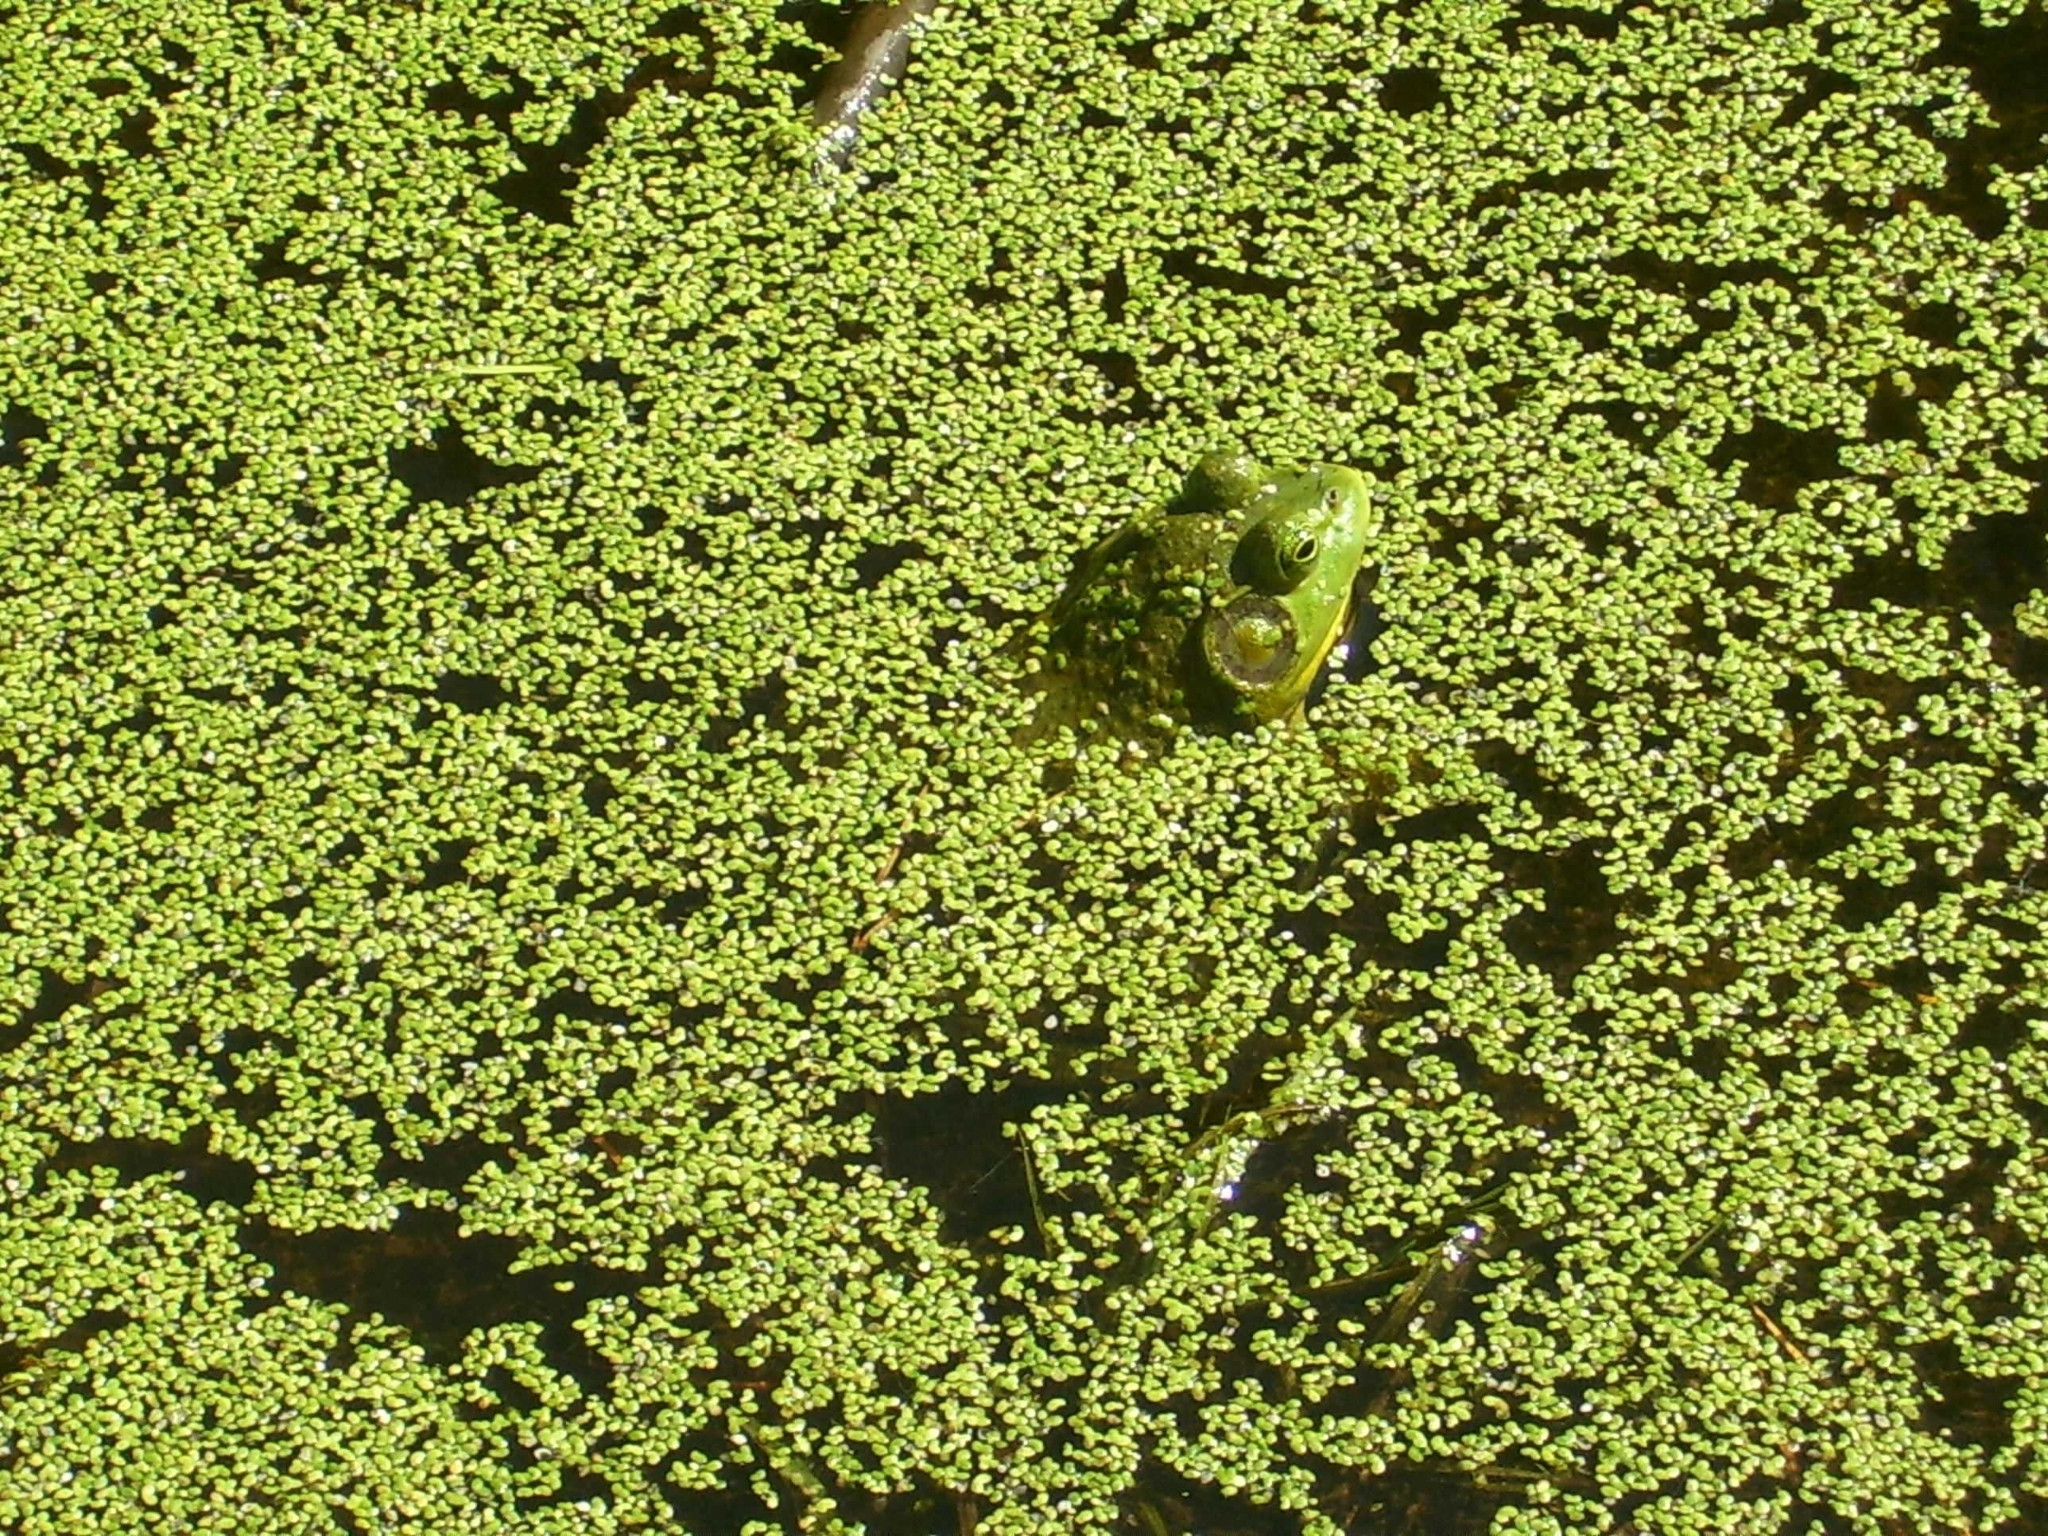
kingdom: Animalia
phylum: Chordata
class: Amphibia
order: Anura
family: Ranidae
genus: Lithobates
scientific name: Lithobates catesbeianus
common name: American bullfrog
